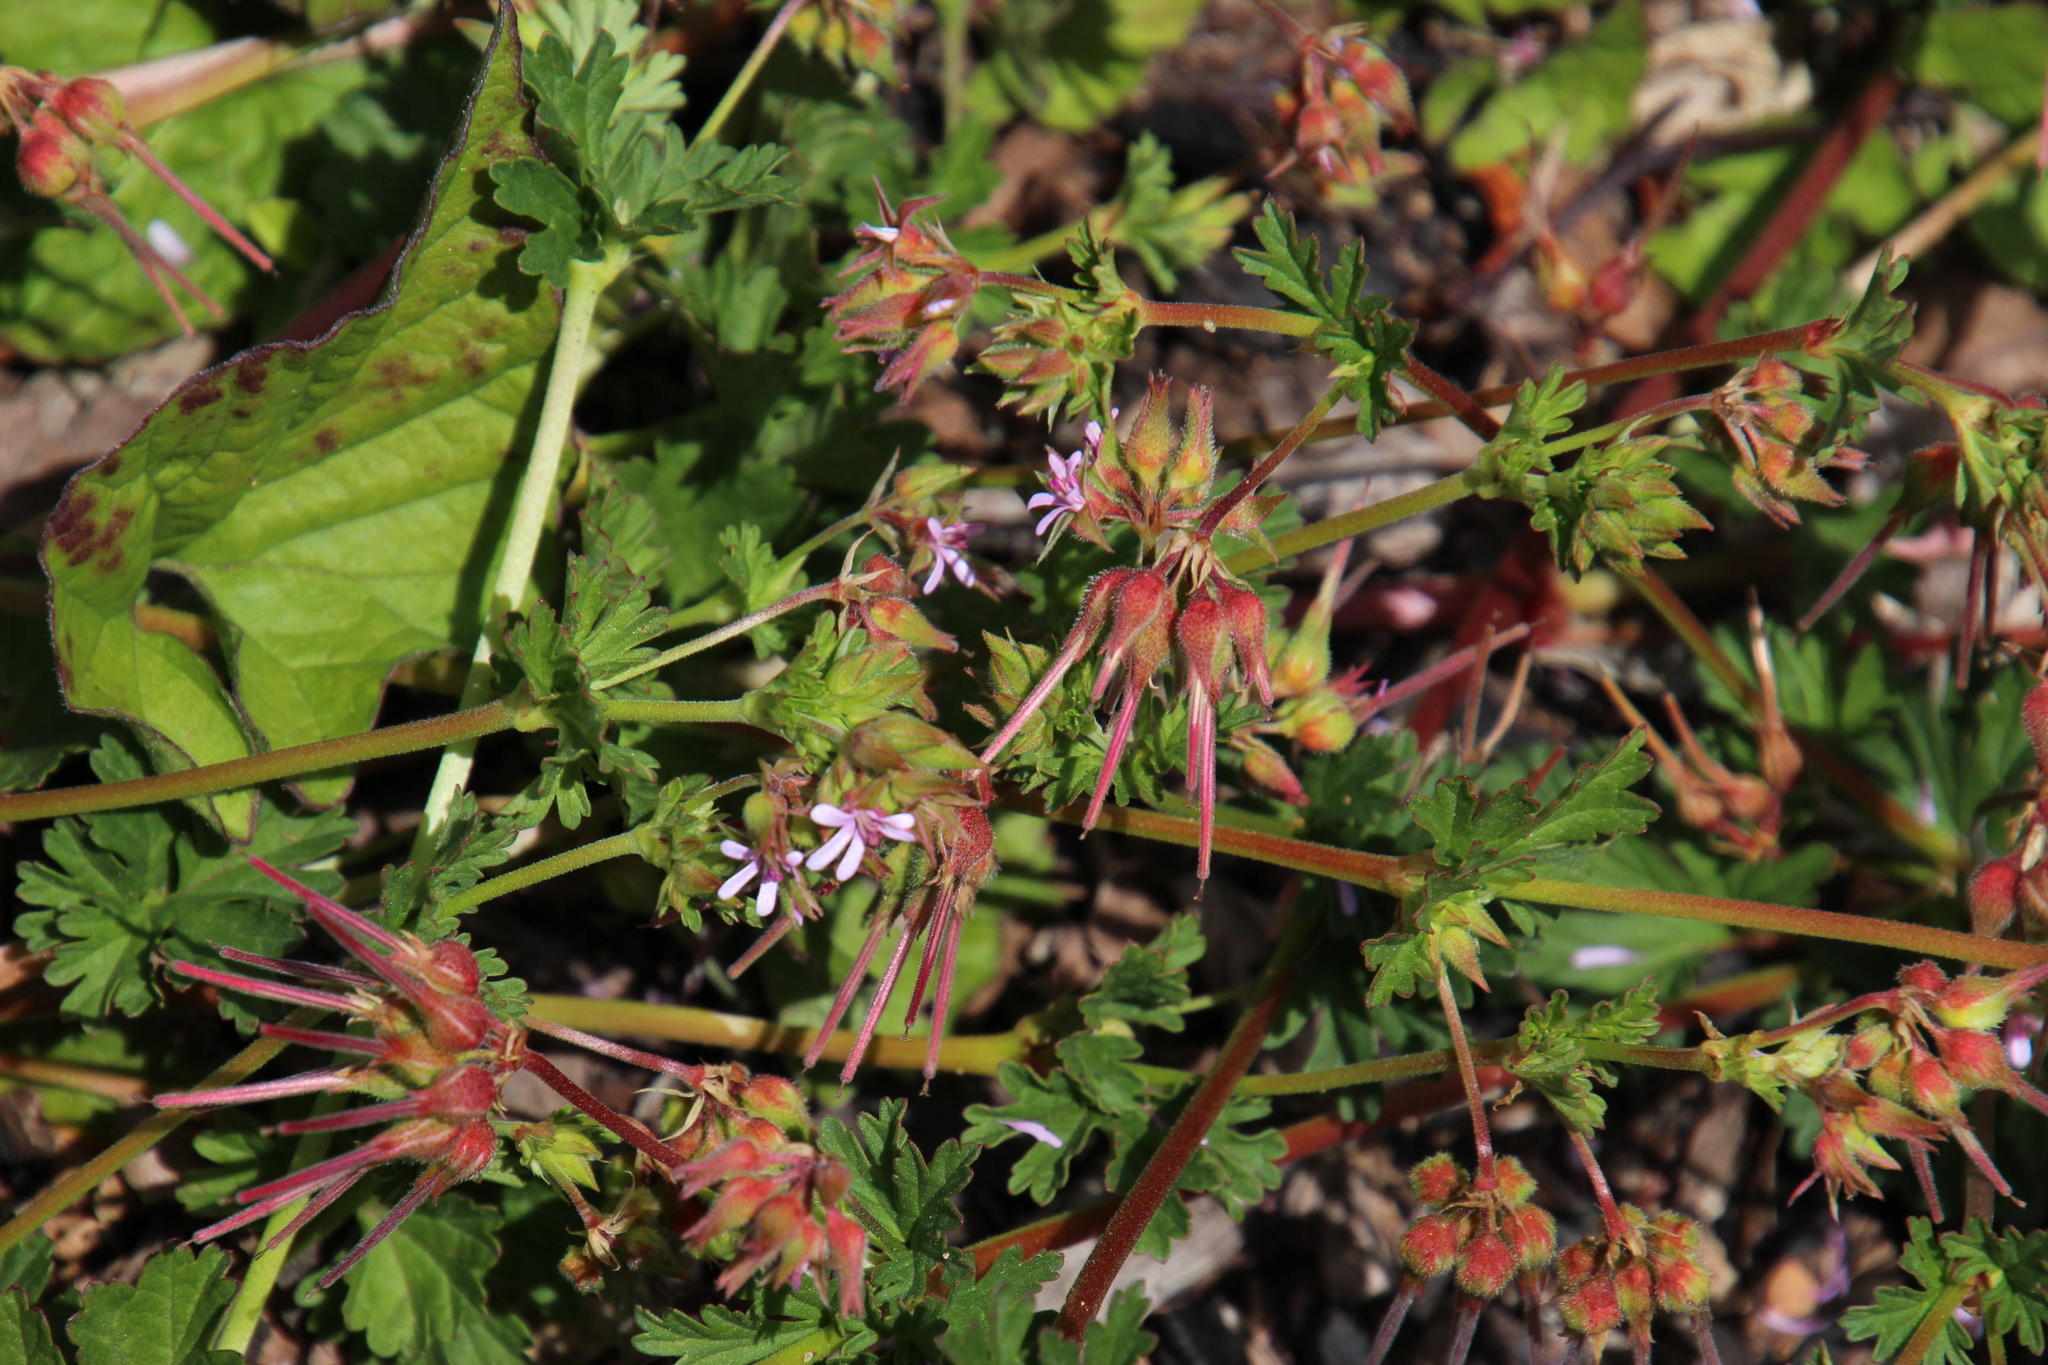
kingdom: Plantae
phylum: Tracheophyta
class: Magnoliopsida
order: Geraniales
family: Geraniaceae
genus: Pelargonium
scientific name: Pelargonium grossularioides
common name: Gooseberry geranium
